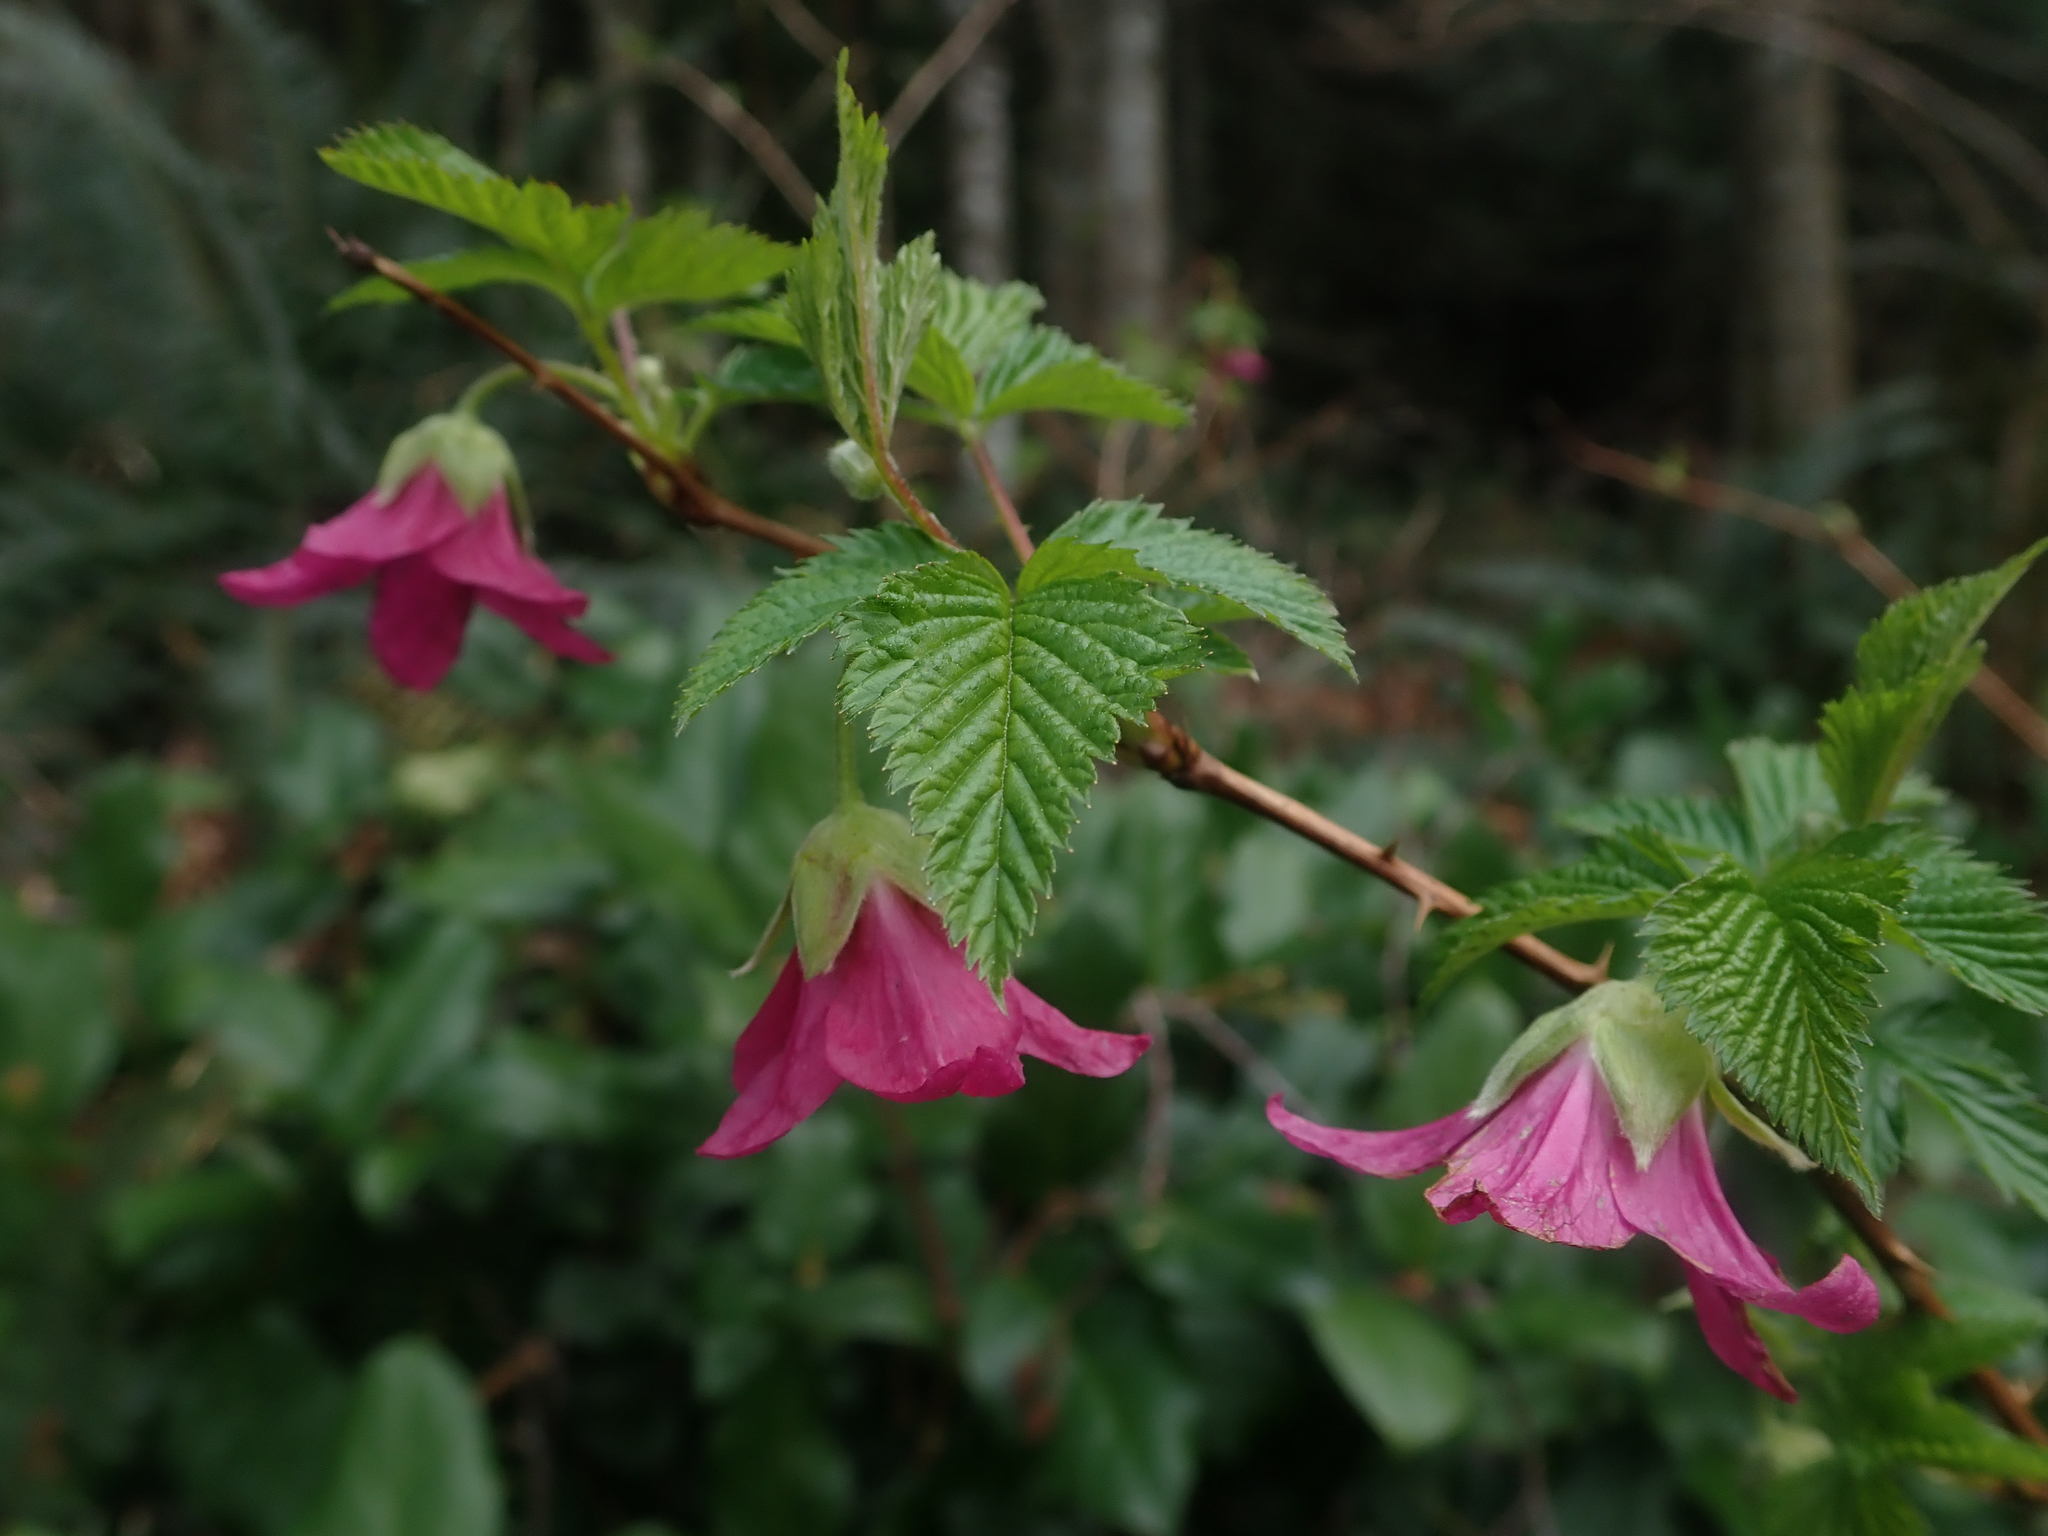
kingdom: Plantae
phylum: Tracheophyta
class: Magnoliopsida
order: Rosales
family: Rosaceae
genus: Rubus
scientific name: Rubus spectabilis
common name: Salmonberry
